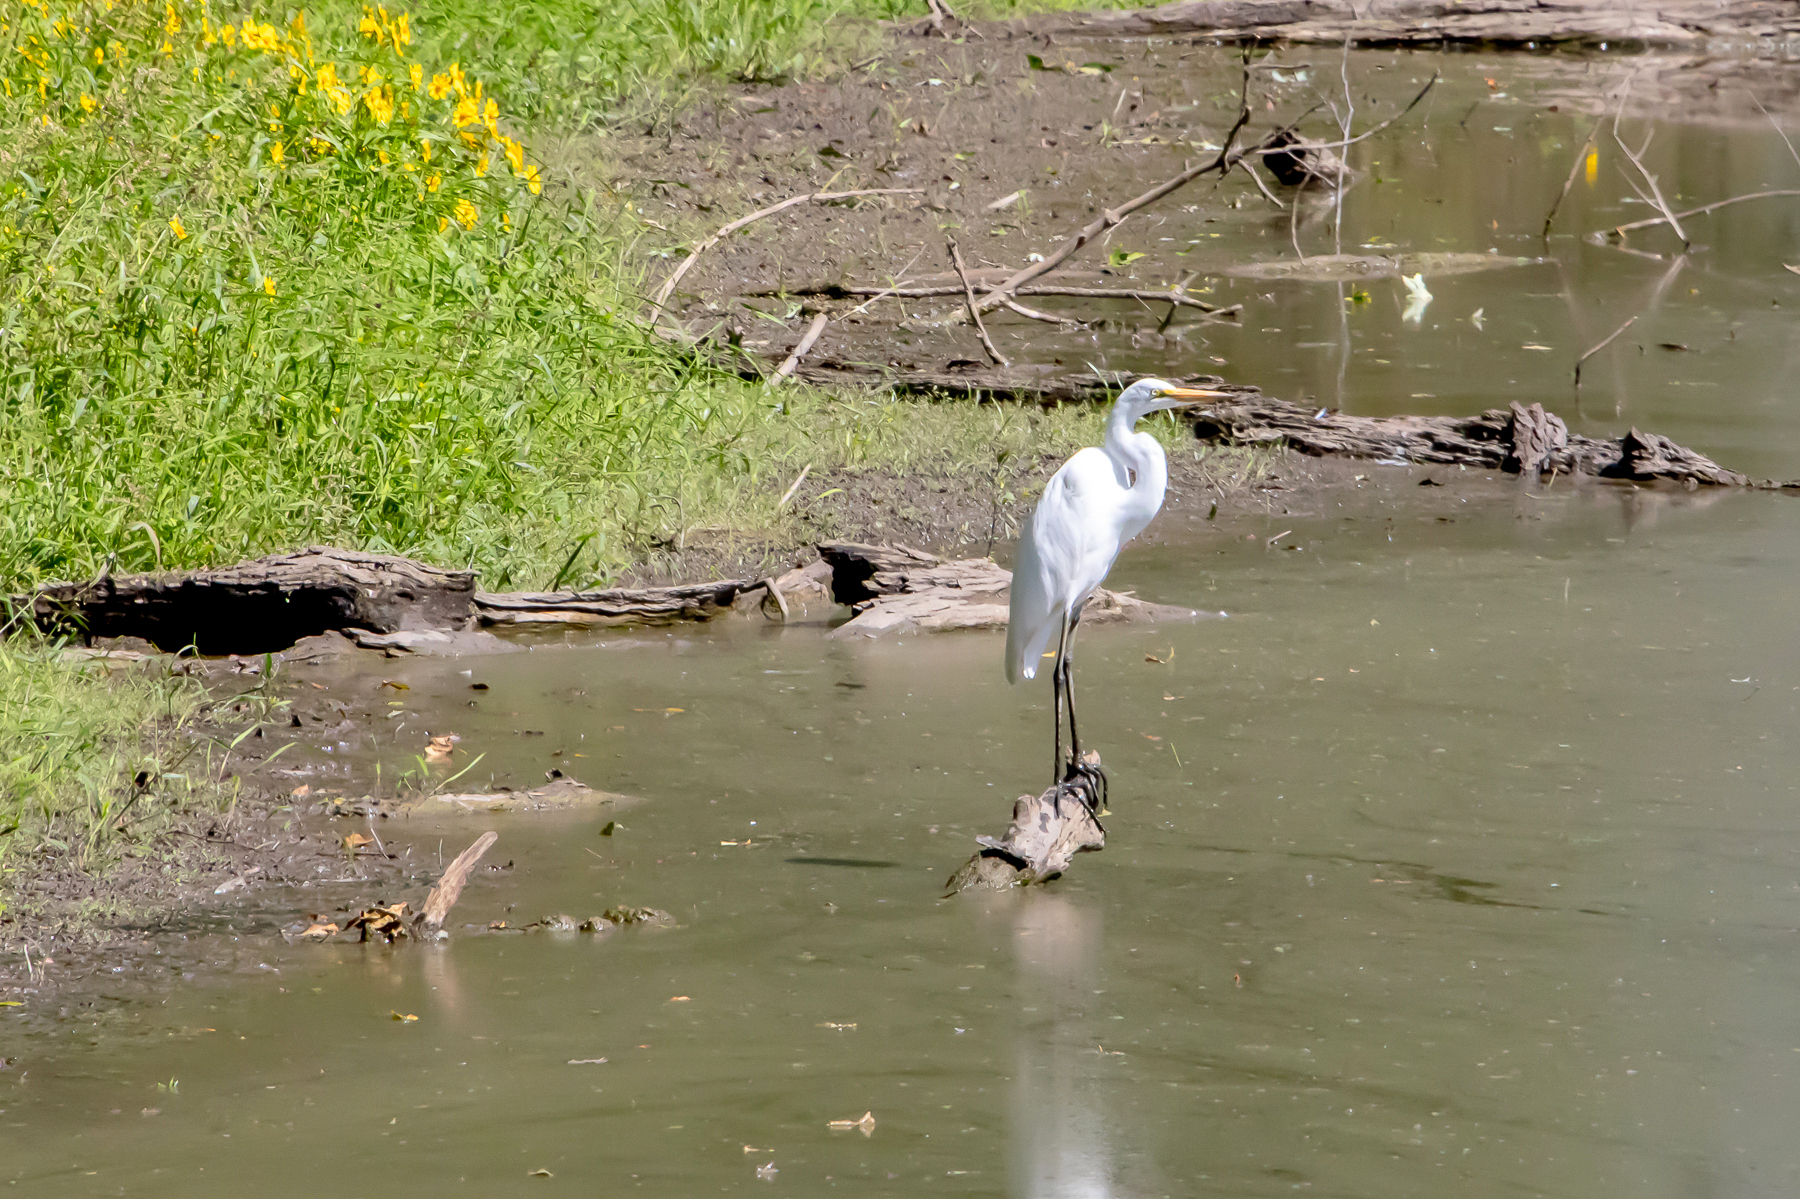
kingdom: Animalia
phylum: Chordata
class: Aves
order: Pelecaniformes
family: Ardeidae
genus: Ardea
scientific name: Ardea alba
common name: Great egret
